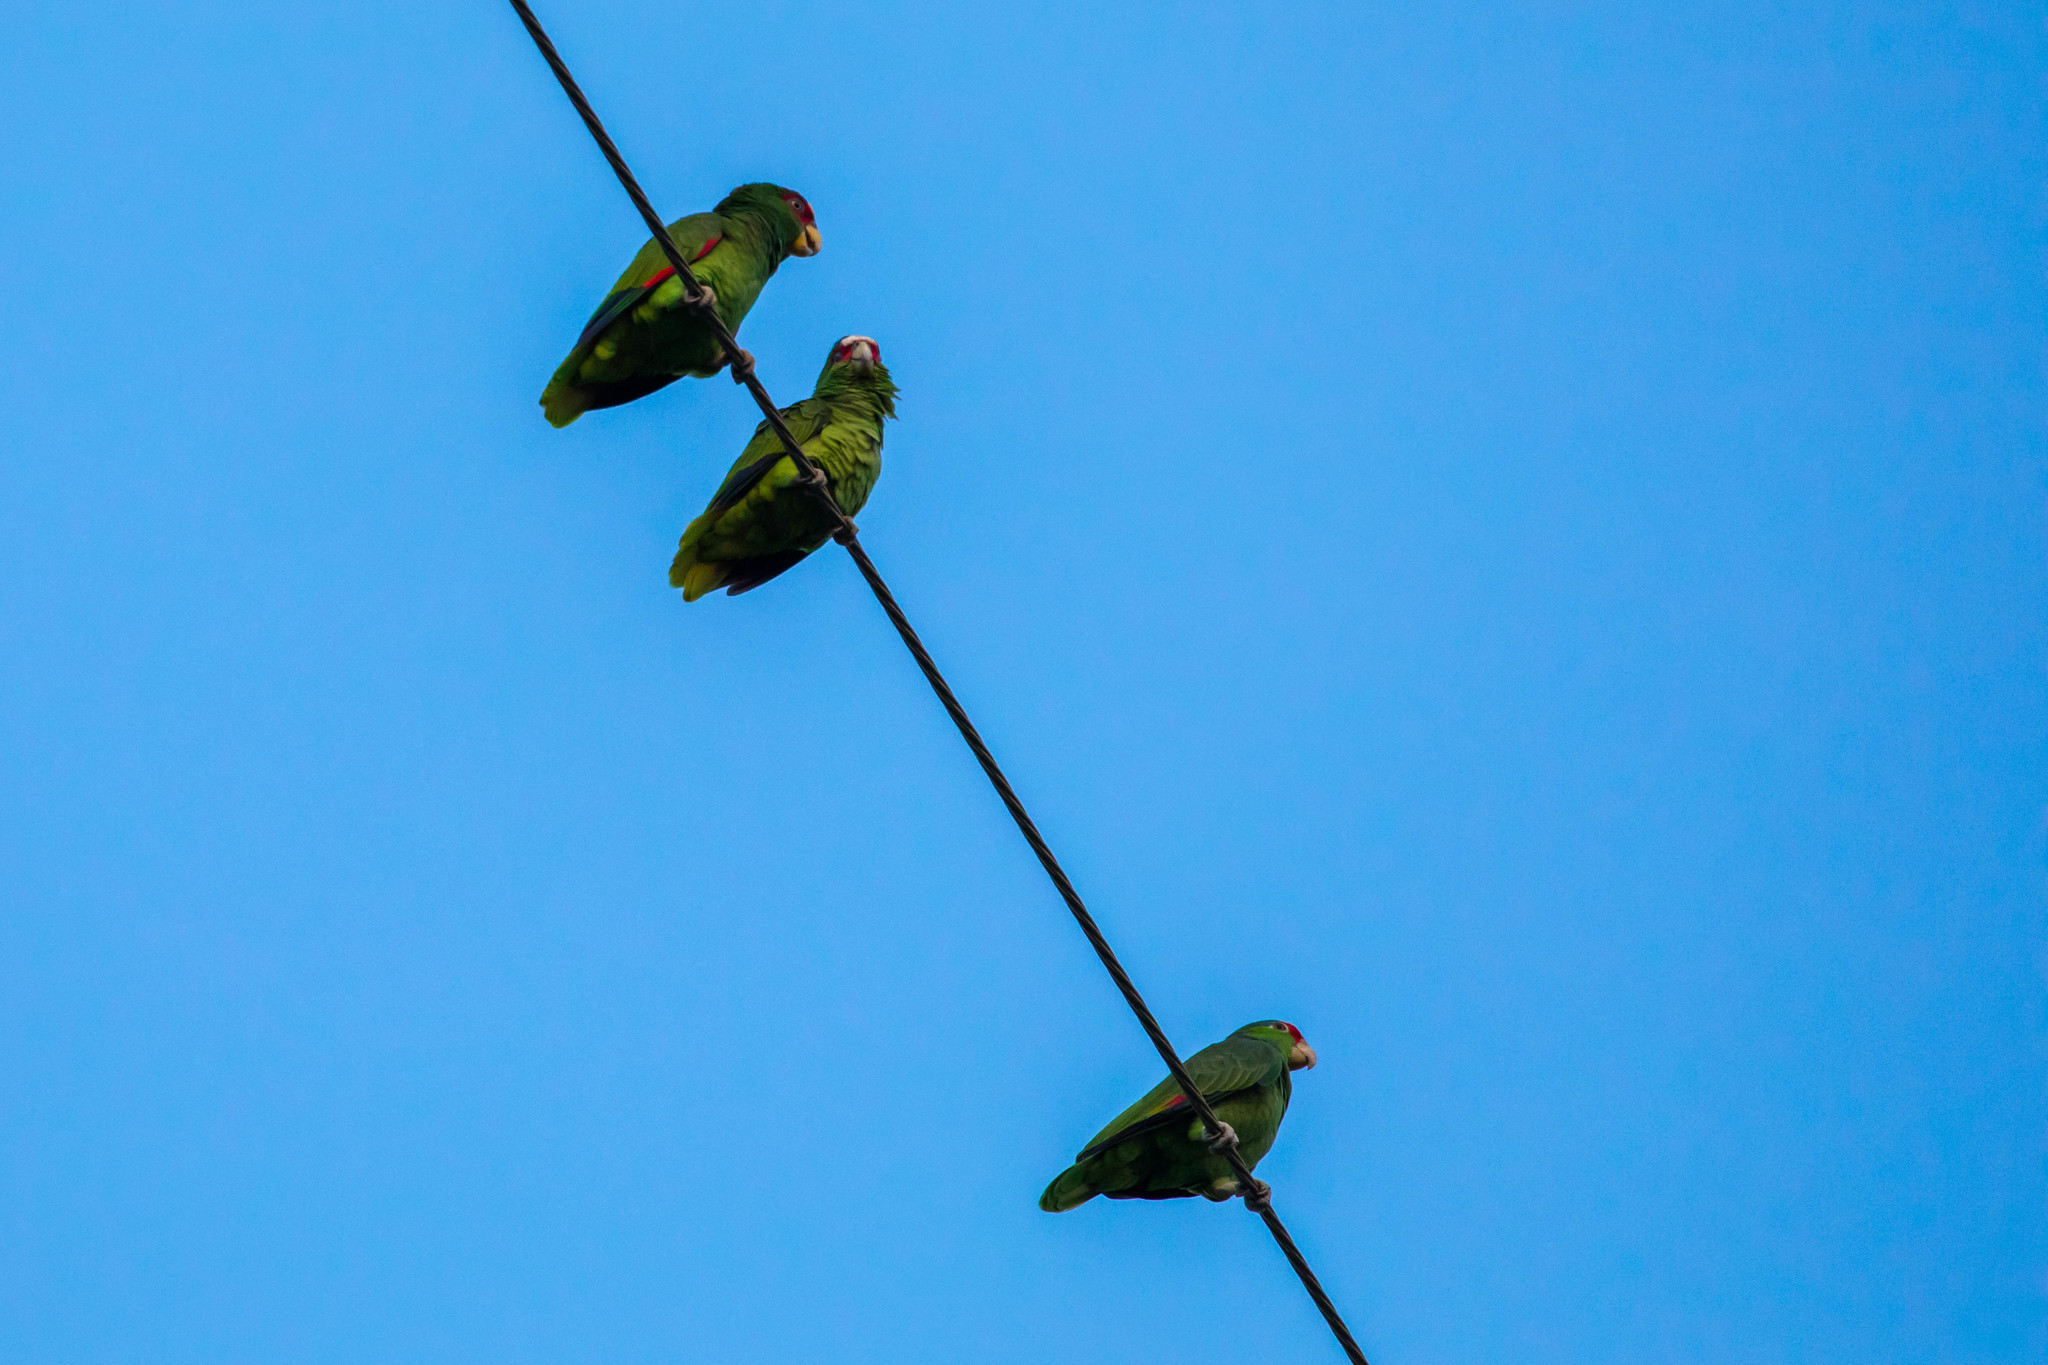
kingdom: Animalia
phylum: Chordata
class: Aves
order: Psittaciformes
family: Psittacidae
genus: Amazona
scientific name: Amazona
